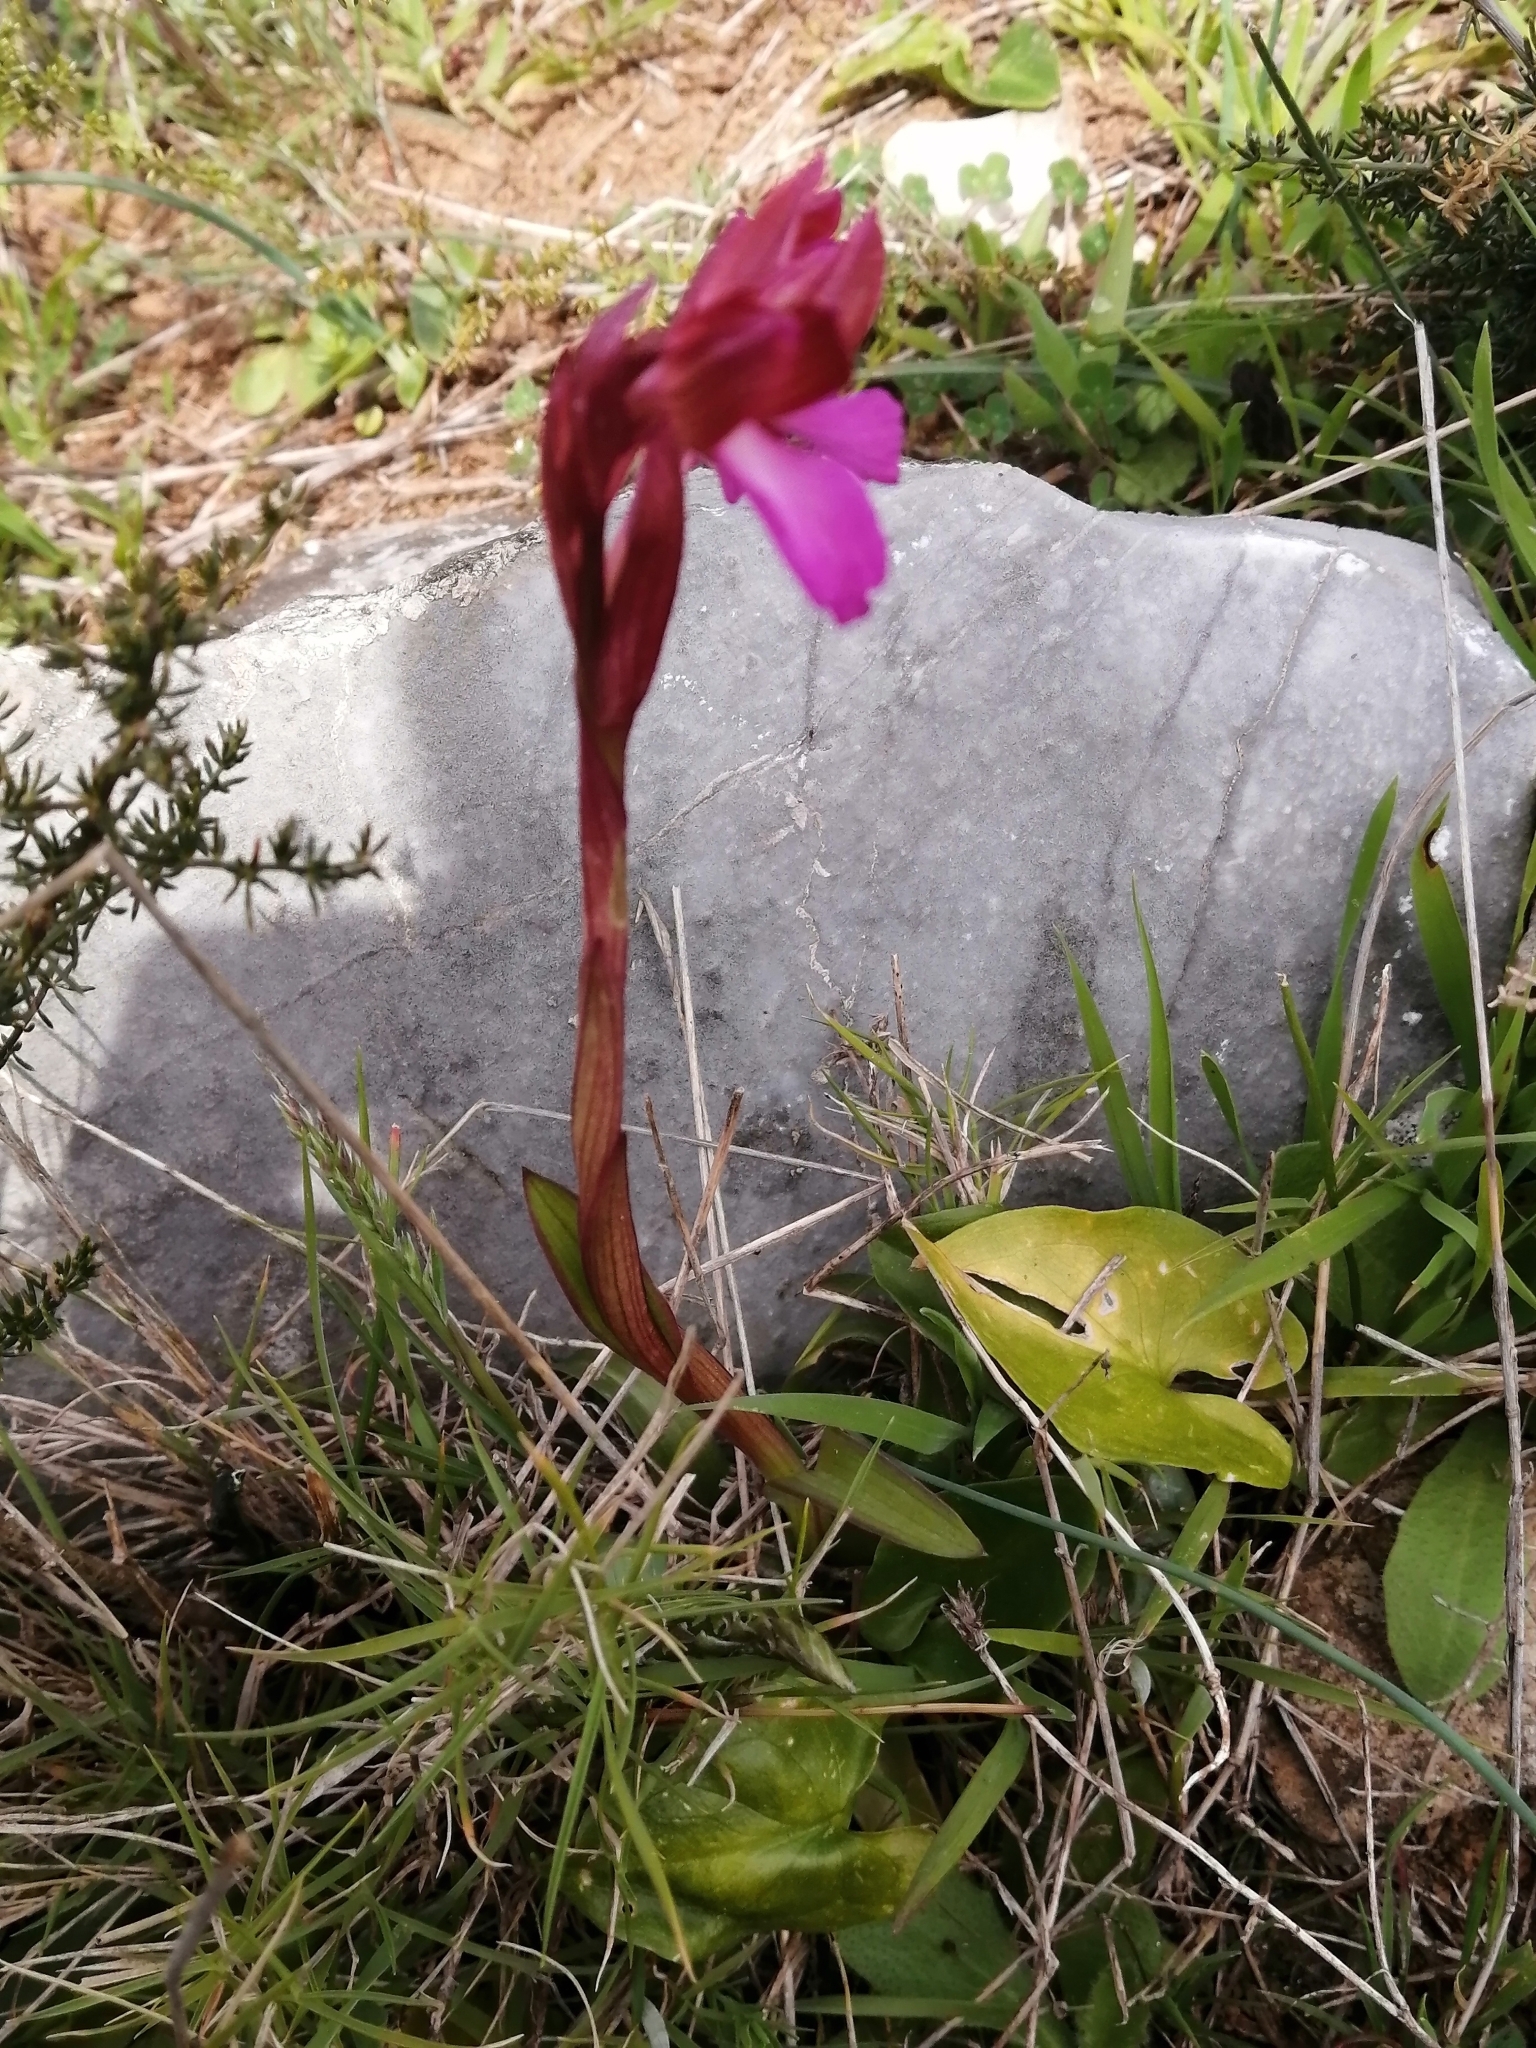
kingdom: Plantae
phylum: Tracheophyta
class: Liliopsida
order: Asparagales
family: Orchidaceae
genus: Anacamptis
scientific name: Anacamptis papilionacea
